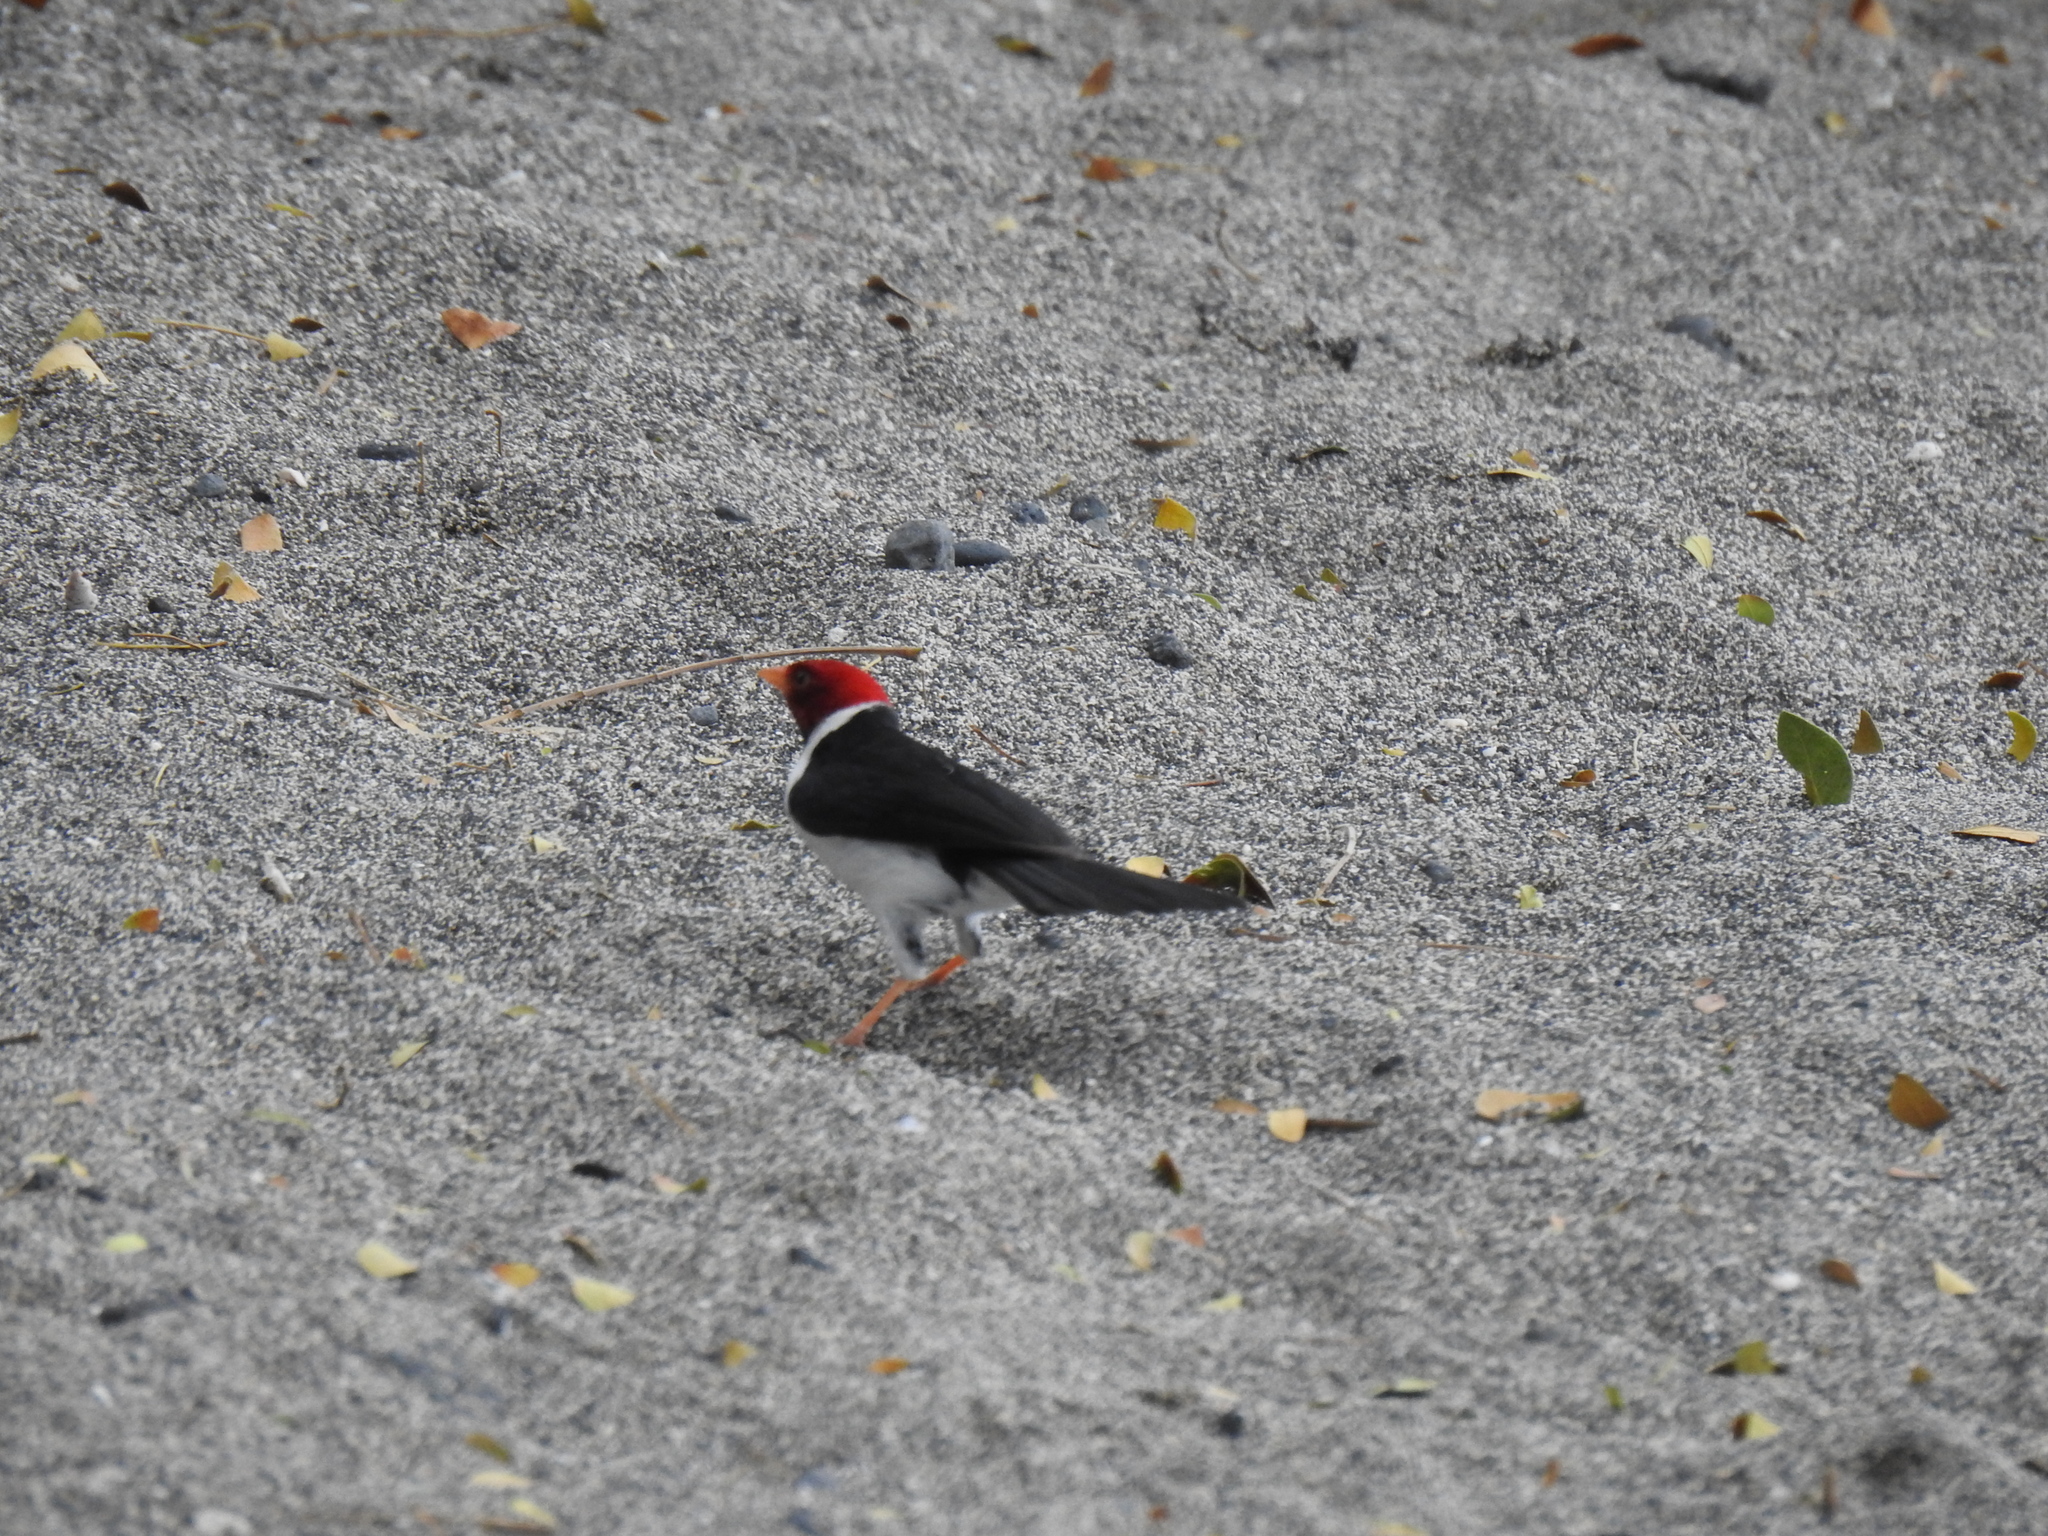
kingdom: Animalia
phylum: Chordata
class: Aves
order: Passeriformes
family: Thraupidae
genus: Paroaria
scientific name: Paroaria capitata
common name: Yellow-billed cardinal
